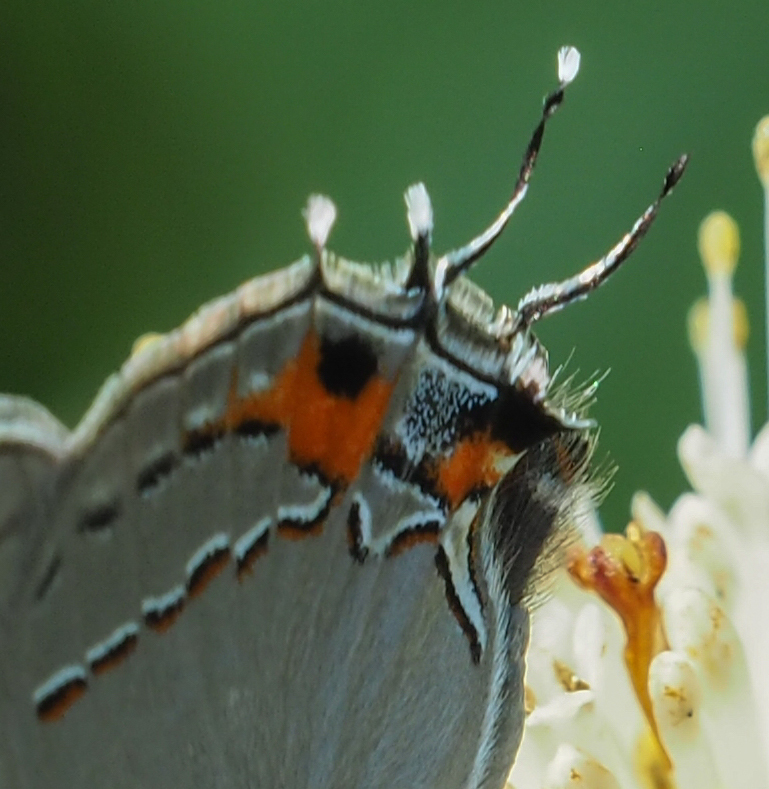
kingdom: Animalia
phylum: Arthropoda
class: Insecta
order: Lepidoptera
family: Lycaenidae
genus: Strymon
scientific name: Strymon melinus
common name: Gray hairstreak
